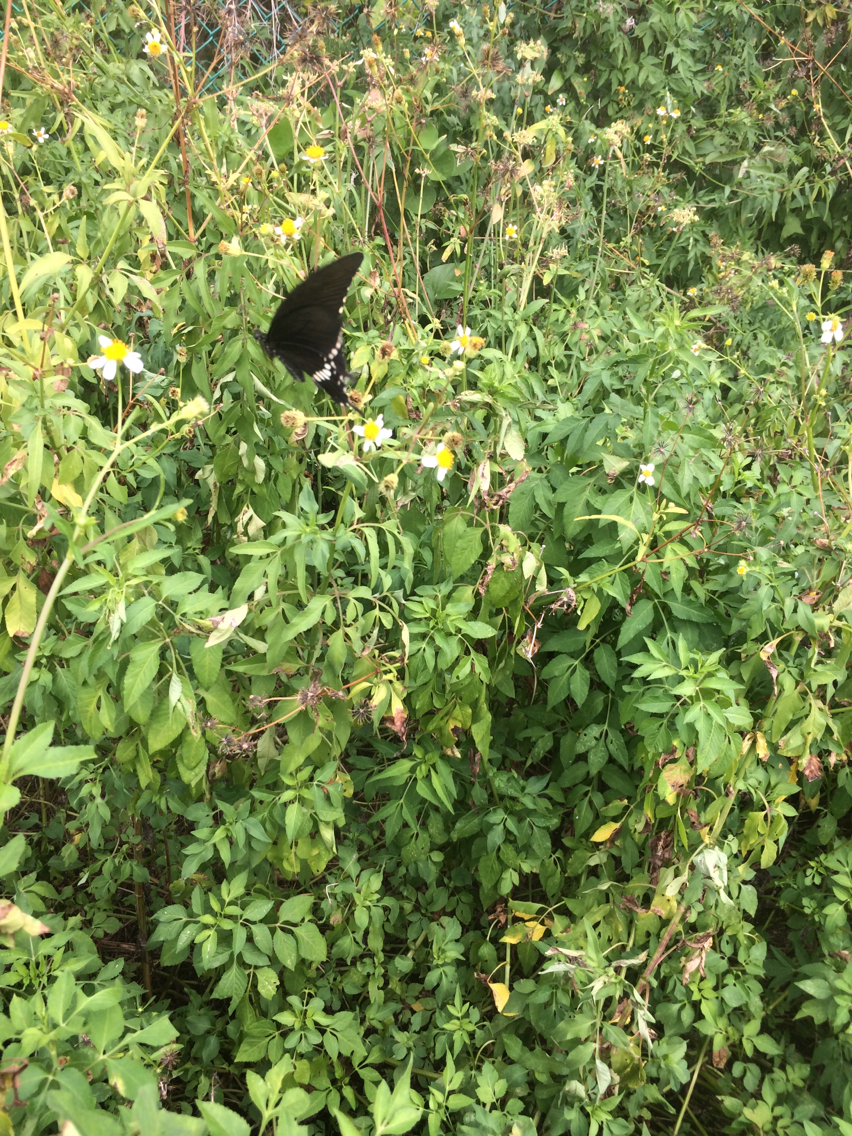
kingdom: Animalia
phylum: Arthropoda
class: Insecta
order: Lepidoptera
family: Papilionidae
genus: Papilio
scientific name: Papilio polytes
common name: Common mormon
